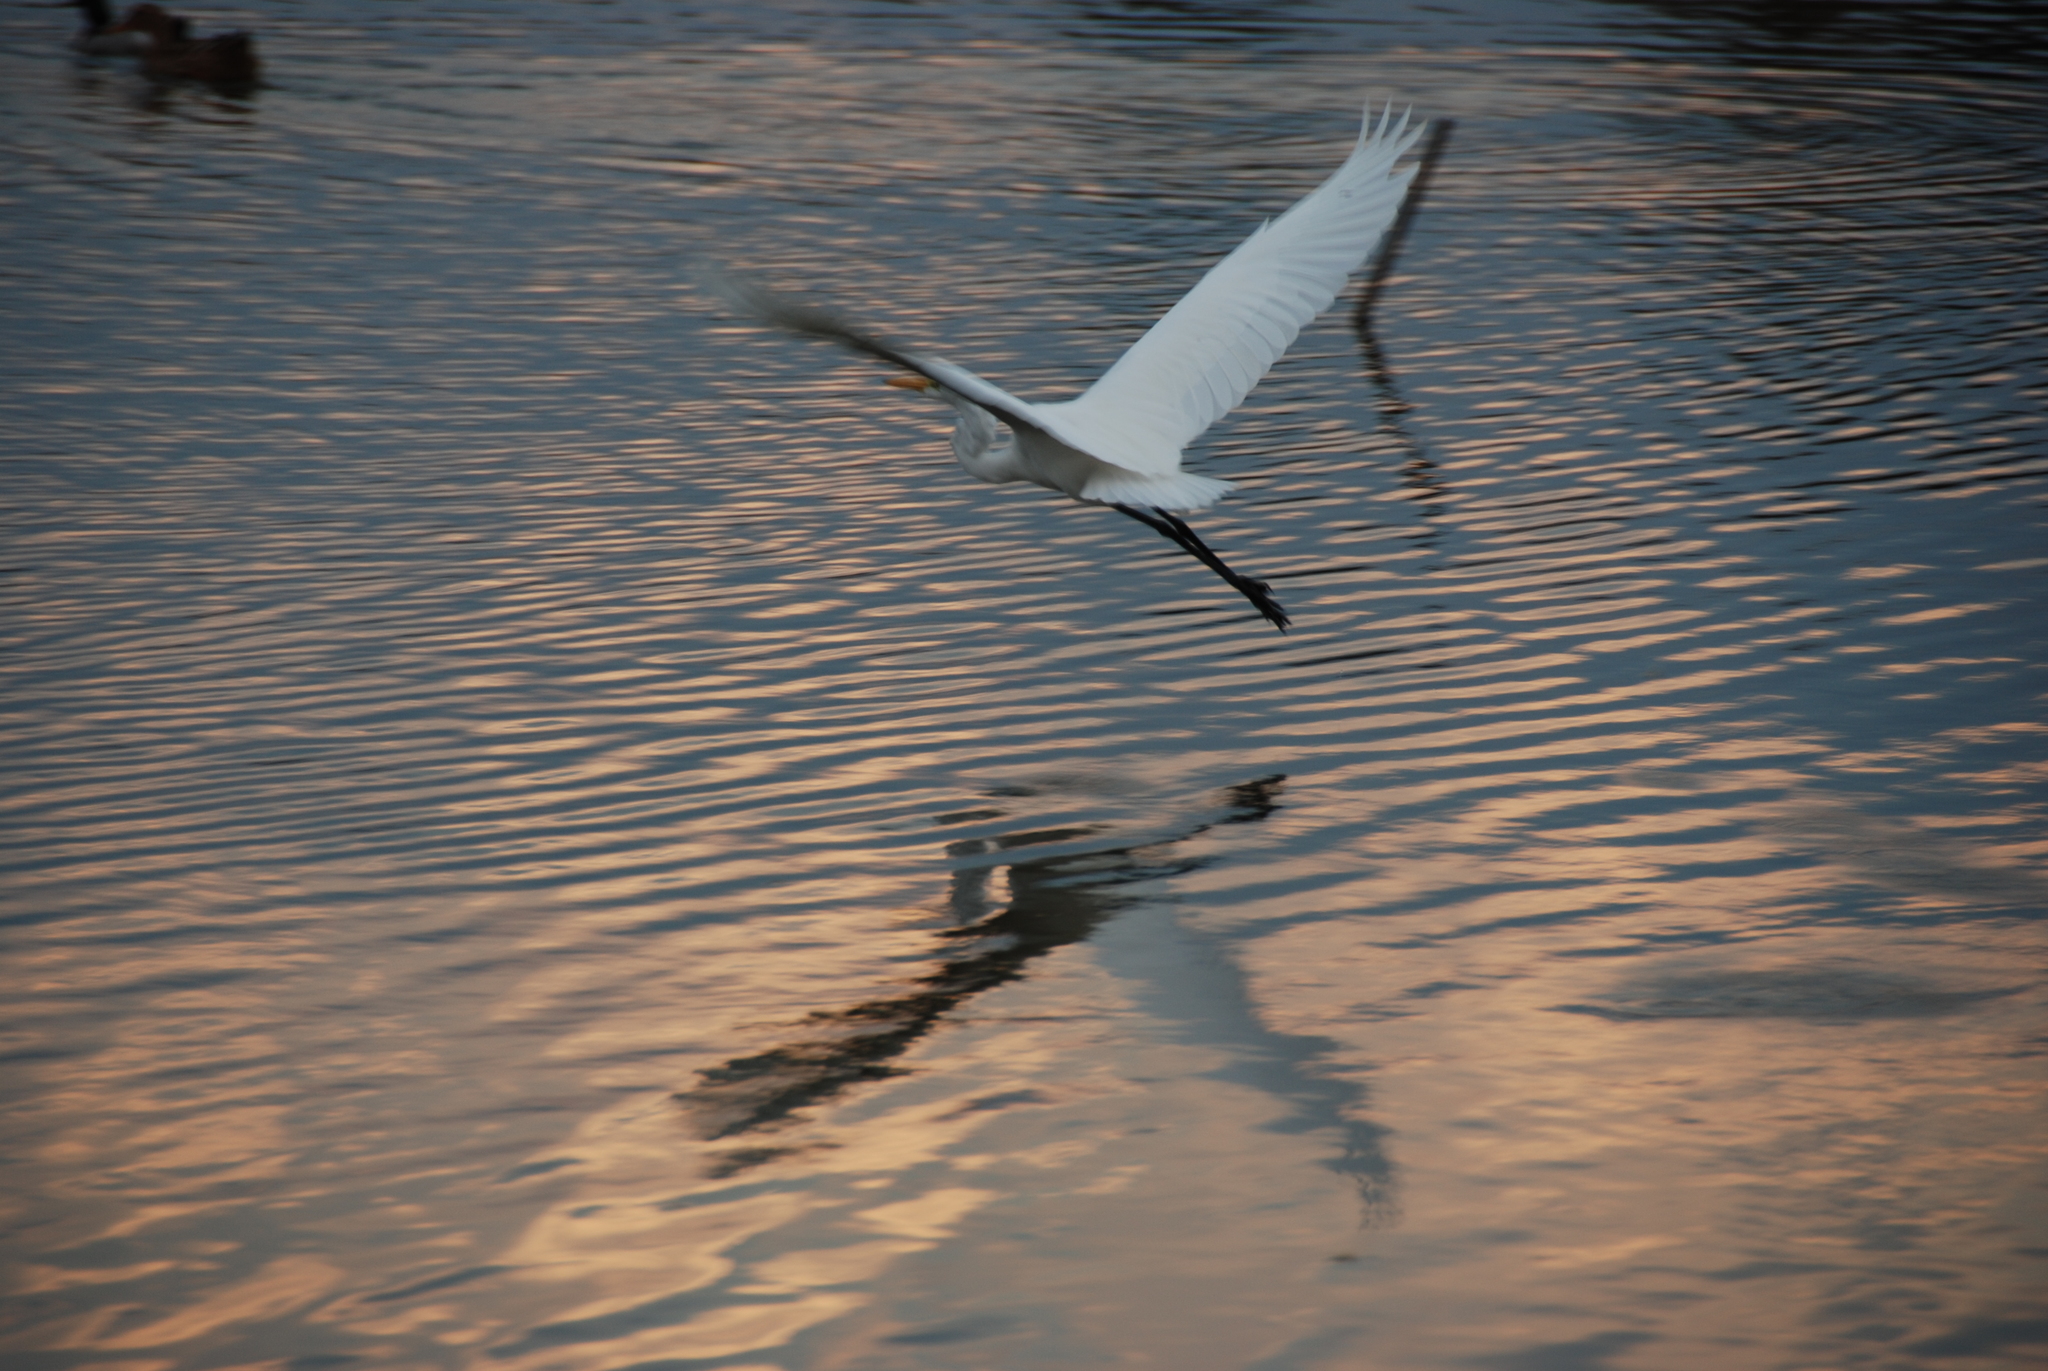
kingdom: Animalia
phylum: Chordata
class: Aves
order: Pelecaniformes
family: Ardeidae
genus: Ardea
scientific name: Ardea alba
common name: Great egret
